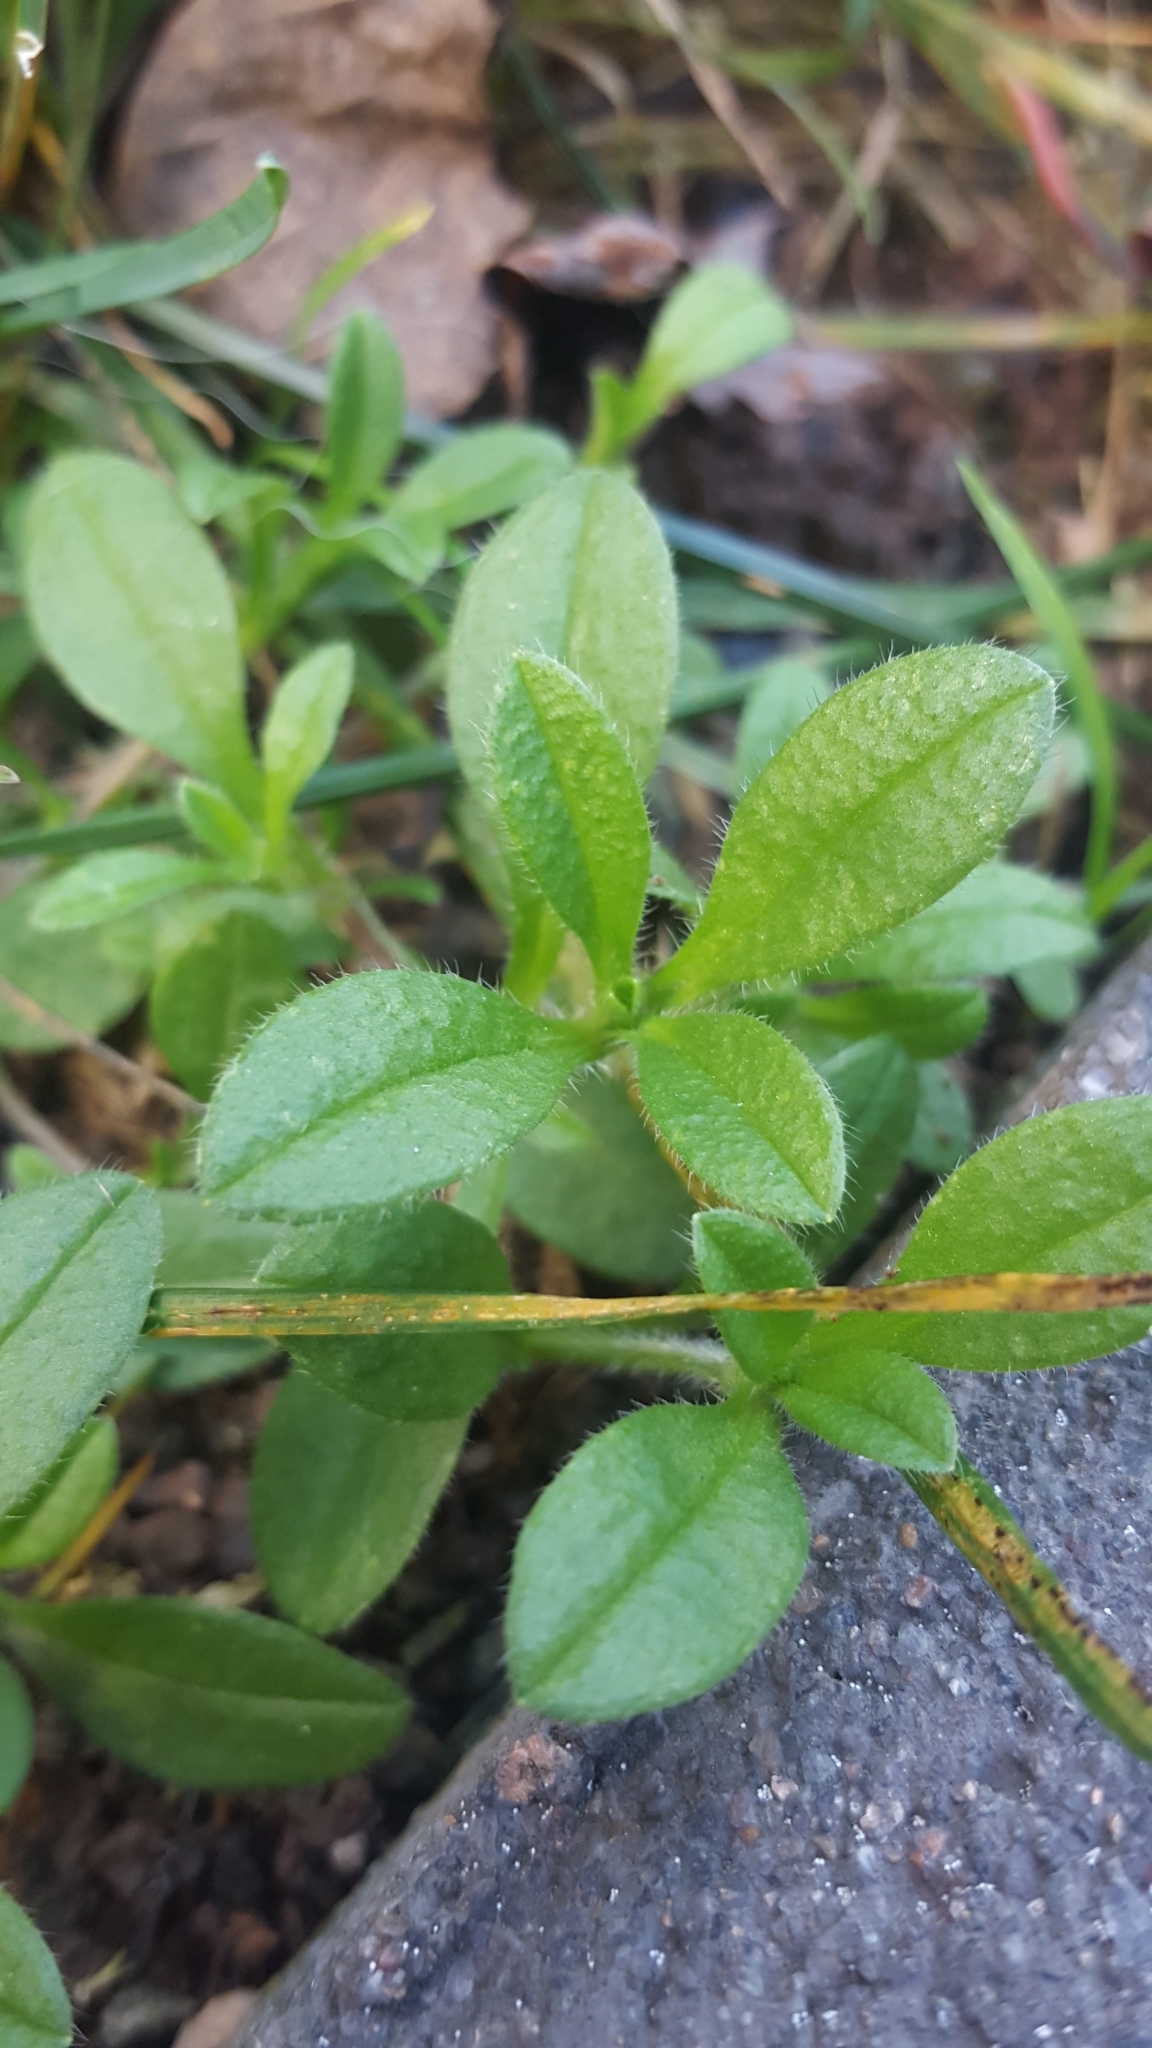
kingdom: Plantae
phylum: Tracheophyta
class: Magnoliopsida
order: Caryophyllales
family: Caryophyllaceae
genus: Cerastium
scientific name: Cerastium fontanum
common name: Common mouse-ear
